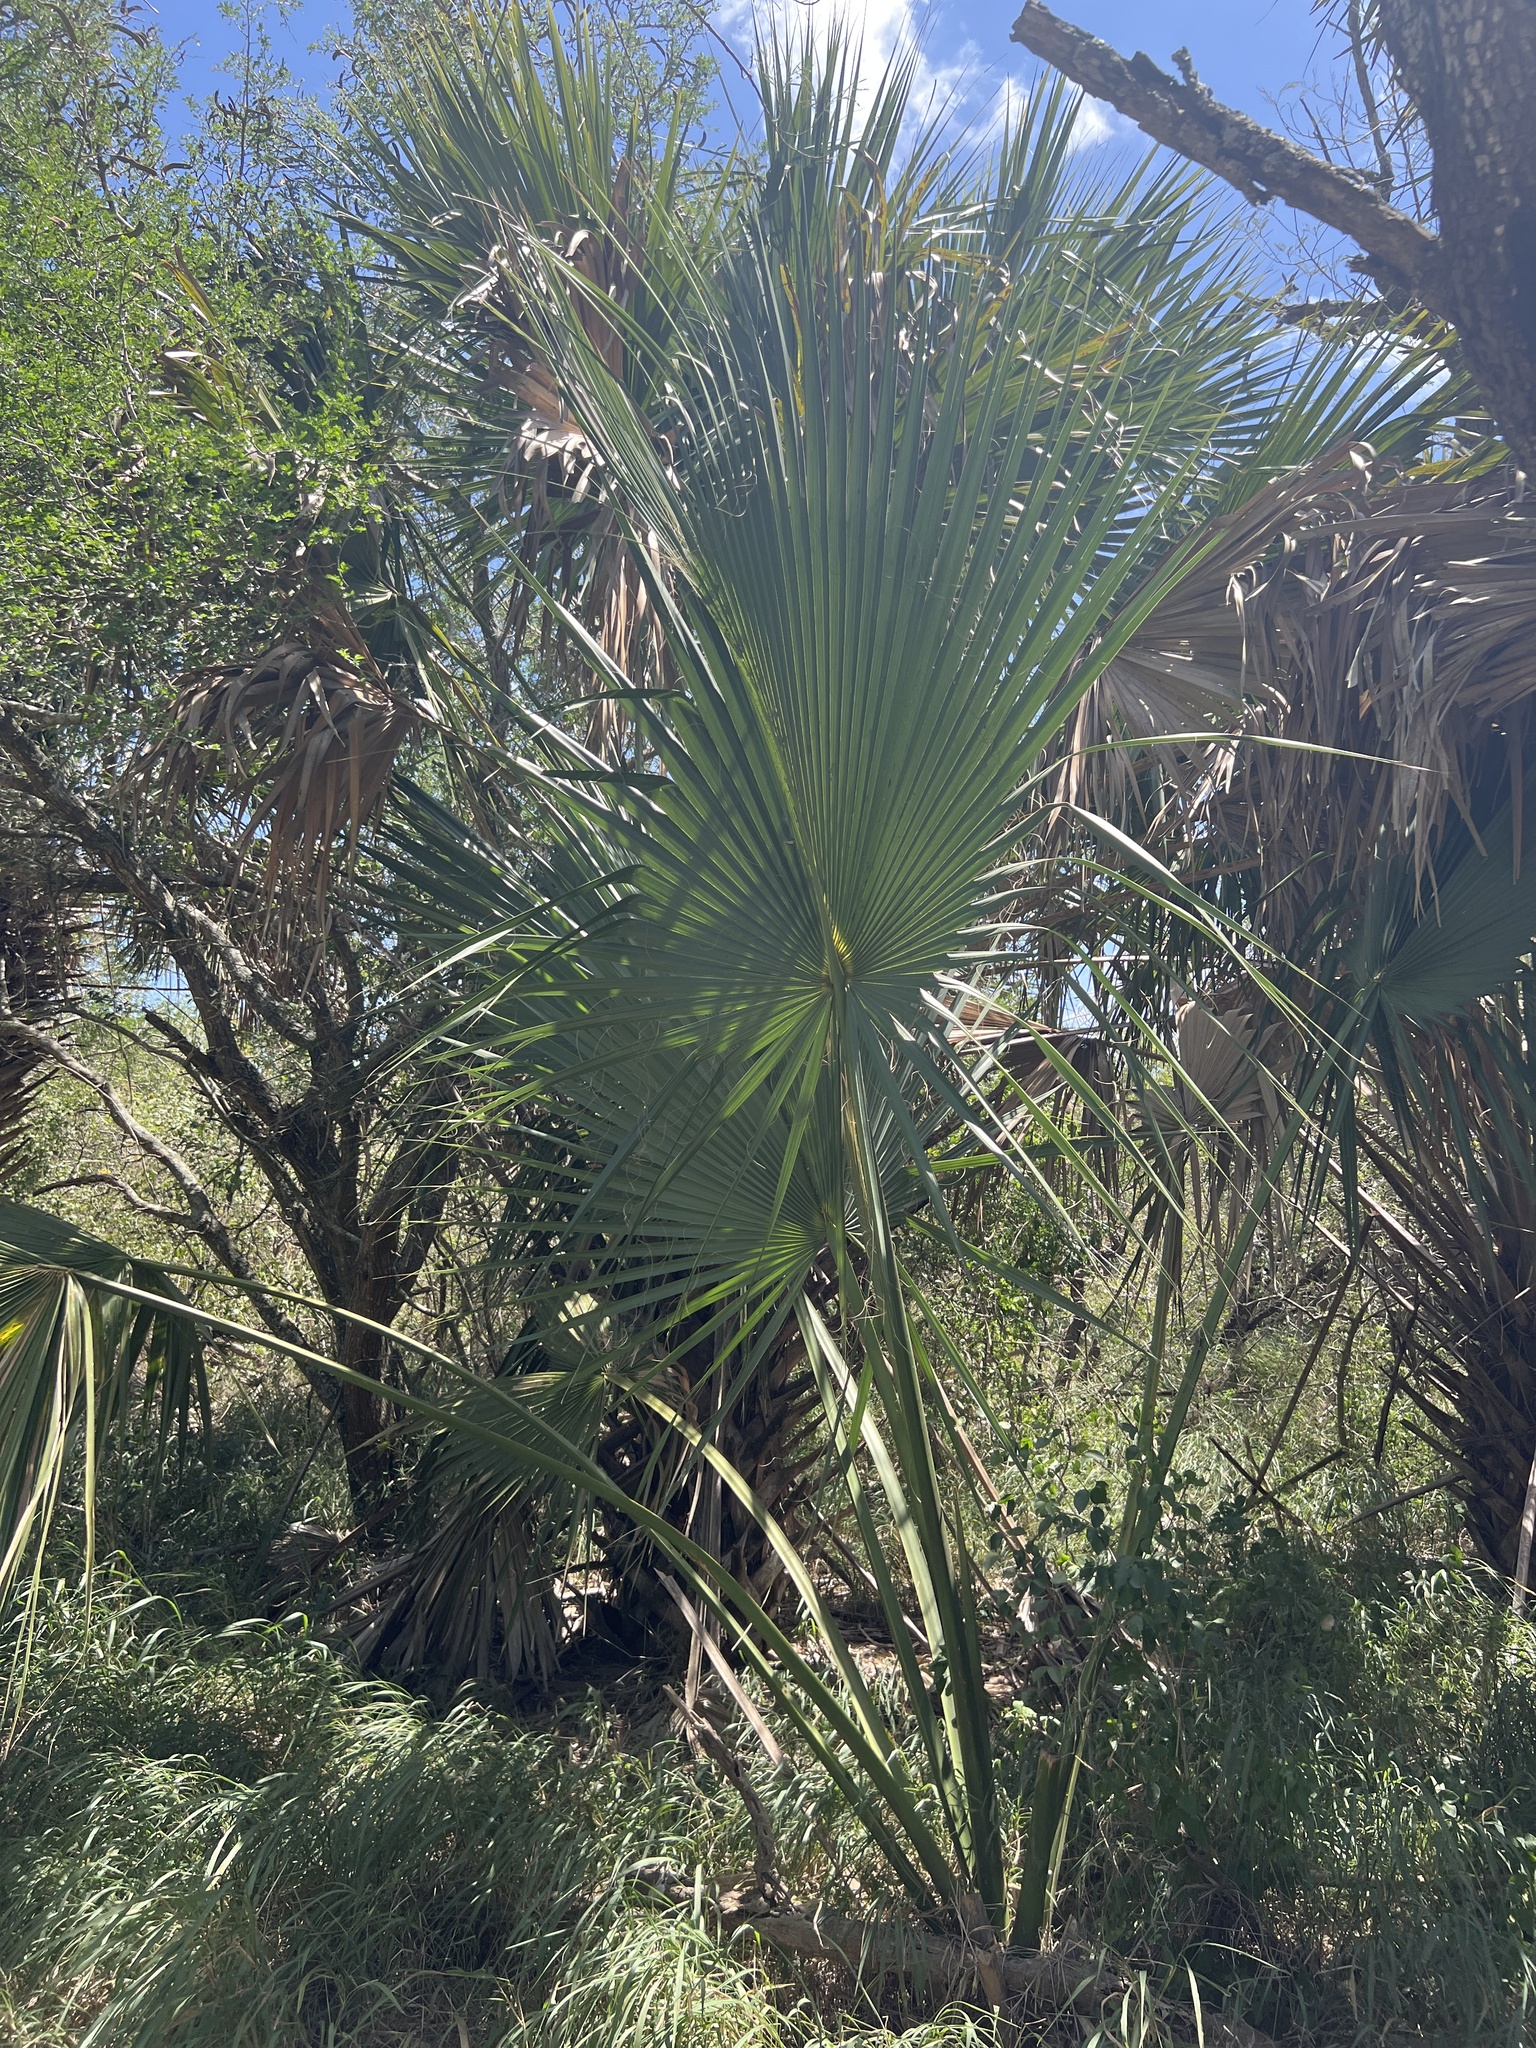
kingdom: Plantae
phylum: Tracheophyta
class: Liliopsida
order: Arecales
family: Arecaceae
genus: Sabal
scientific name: Sabal mexicana
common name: Texas palmetto
